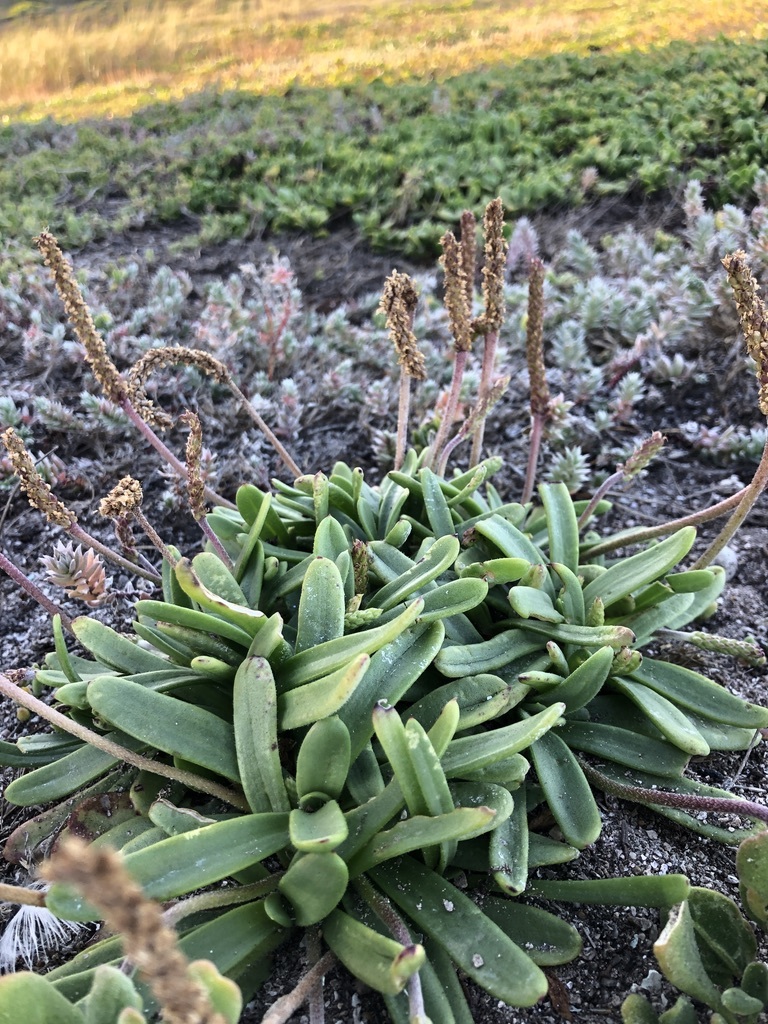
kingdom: Plantae
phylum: Tracheophyta
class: Magnoliopsida
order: Lamiales
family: Plantaginaceae
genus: Plantago
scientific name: Plantago carnosa
